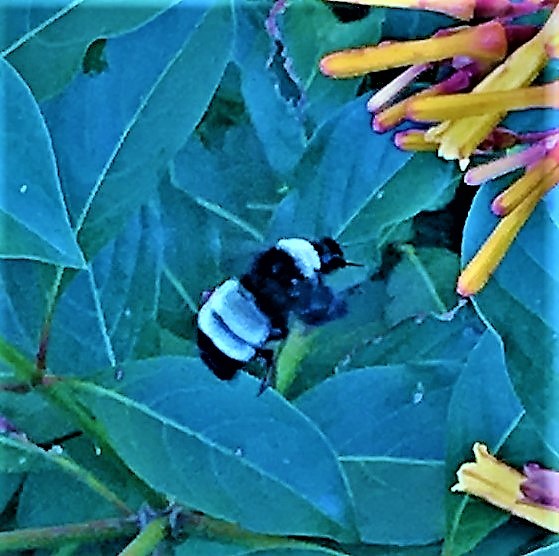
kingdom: Animalia
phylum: Arthropoda
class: Insecta
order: Hymenoptera
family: Apidae
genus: Bombus
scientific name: Bombus pensylvanicus
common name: Bumble bee
